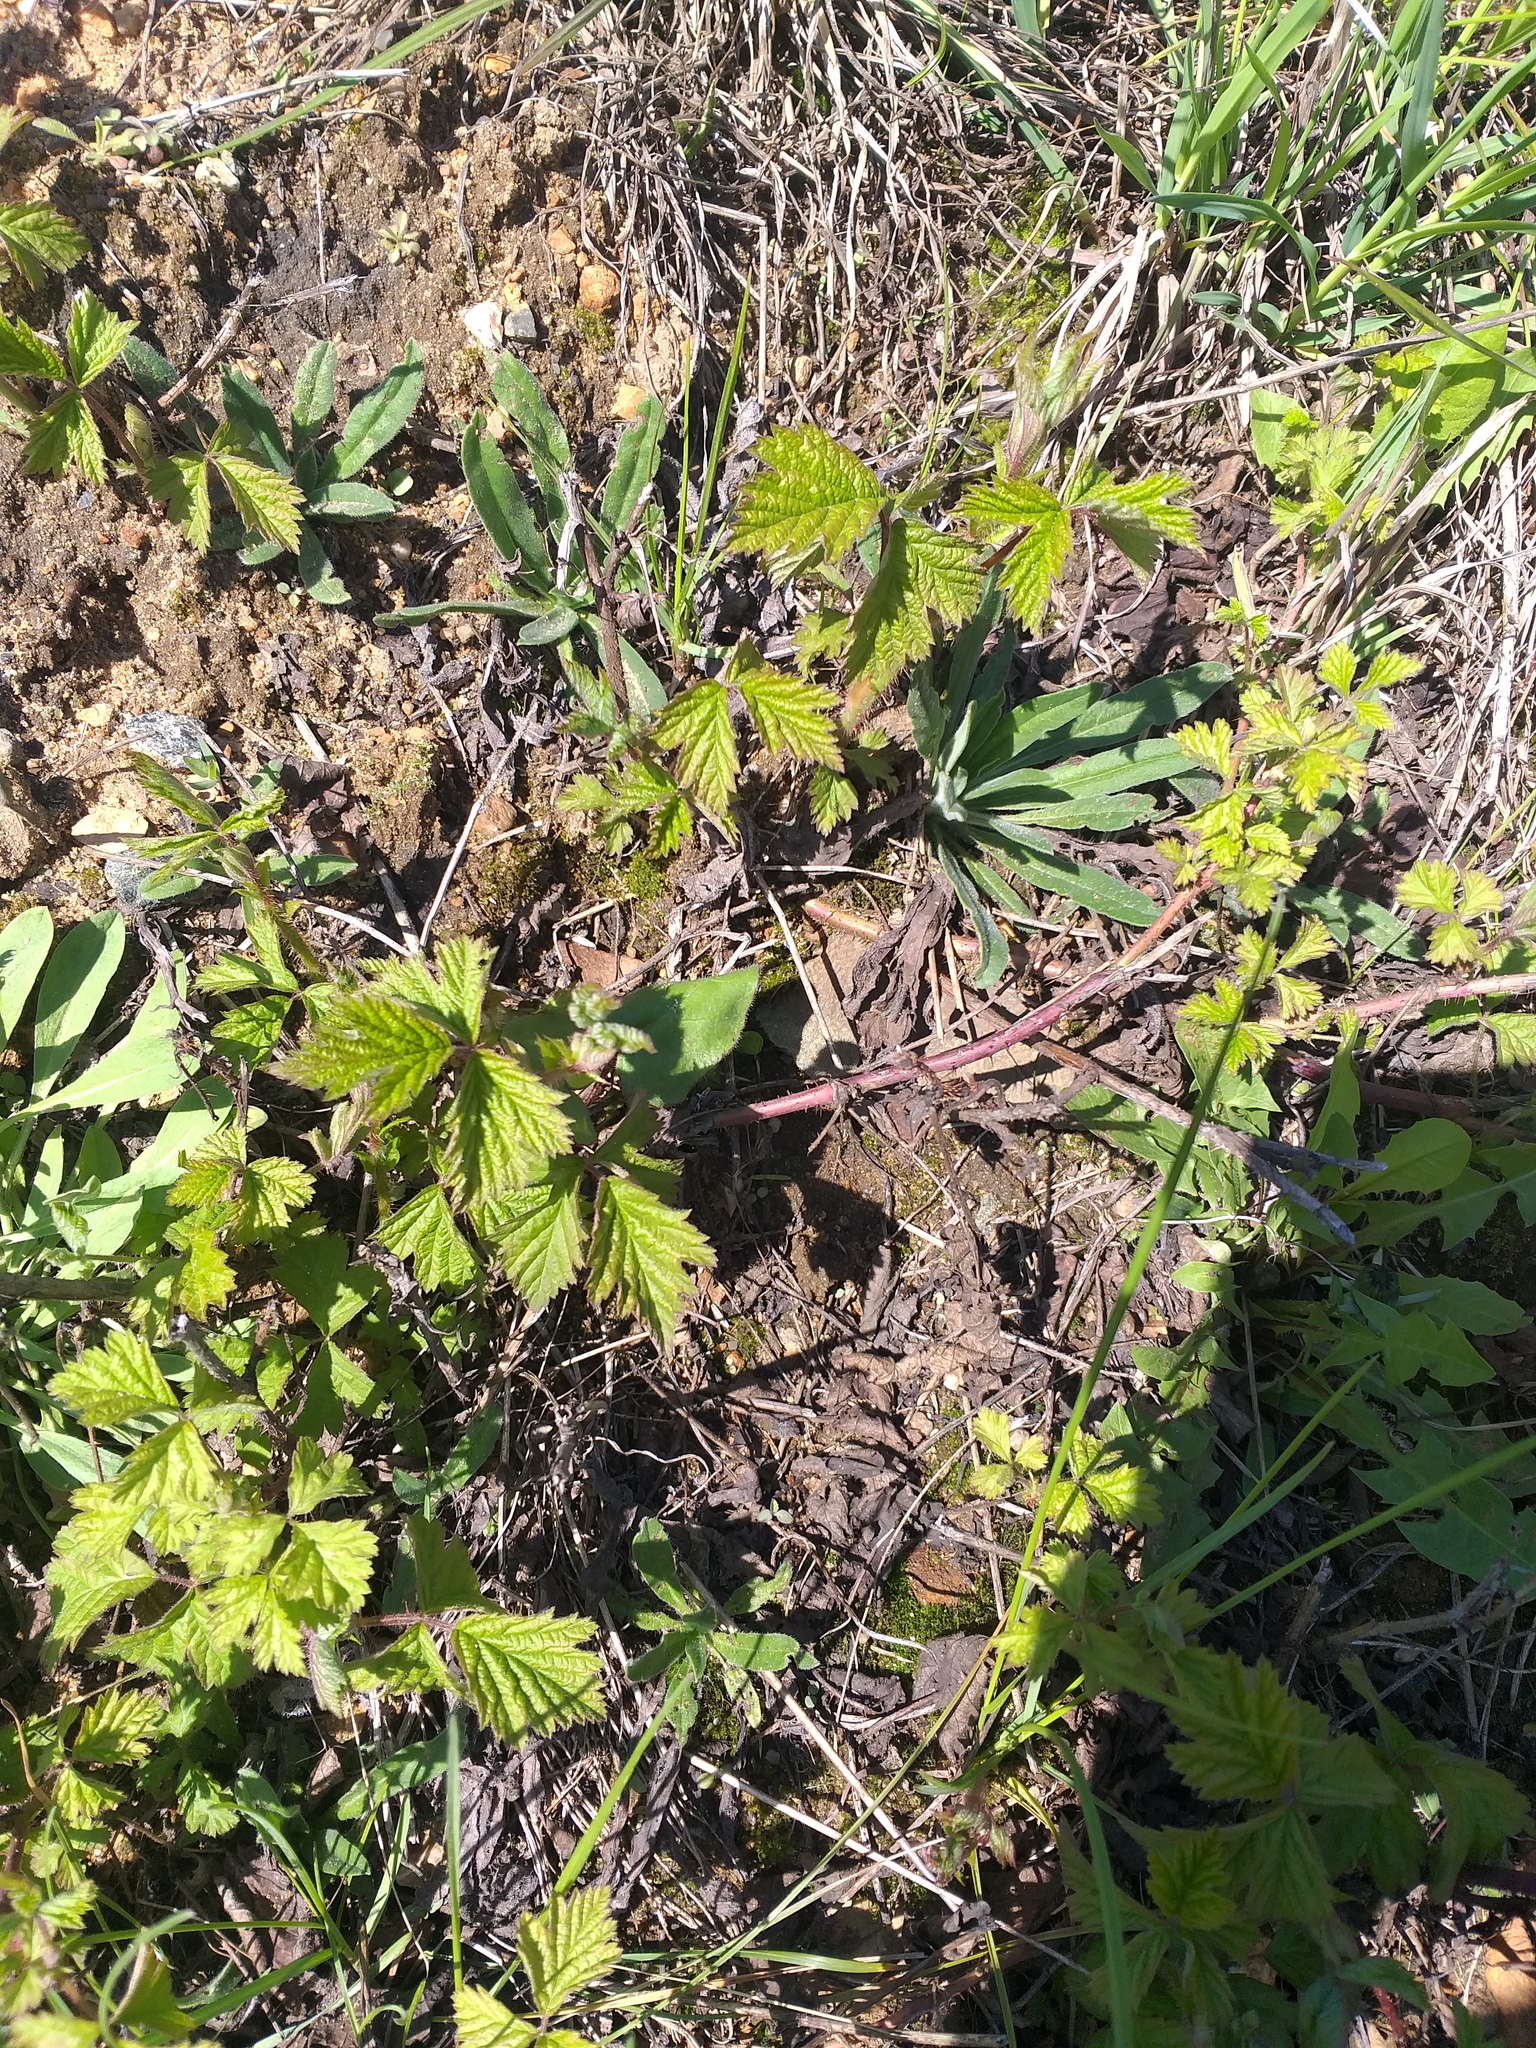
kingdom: Plantae
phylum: Tracheophyta
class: Magnoliopsida
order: Rosales
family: Rosaceae
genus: Rubus
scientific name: Rubus caesius
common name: Dewberry
